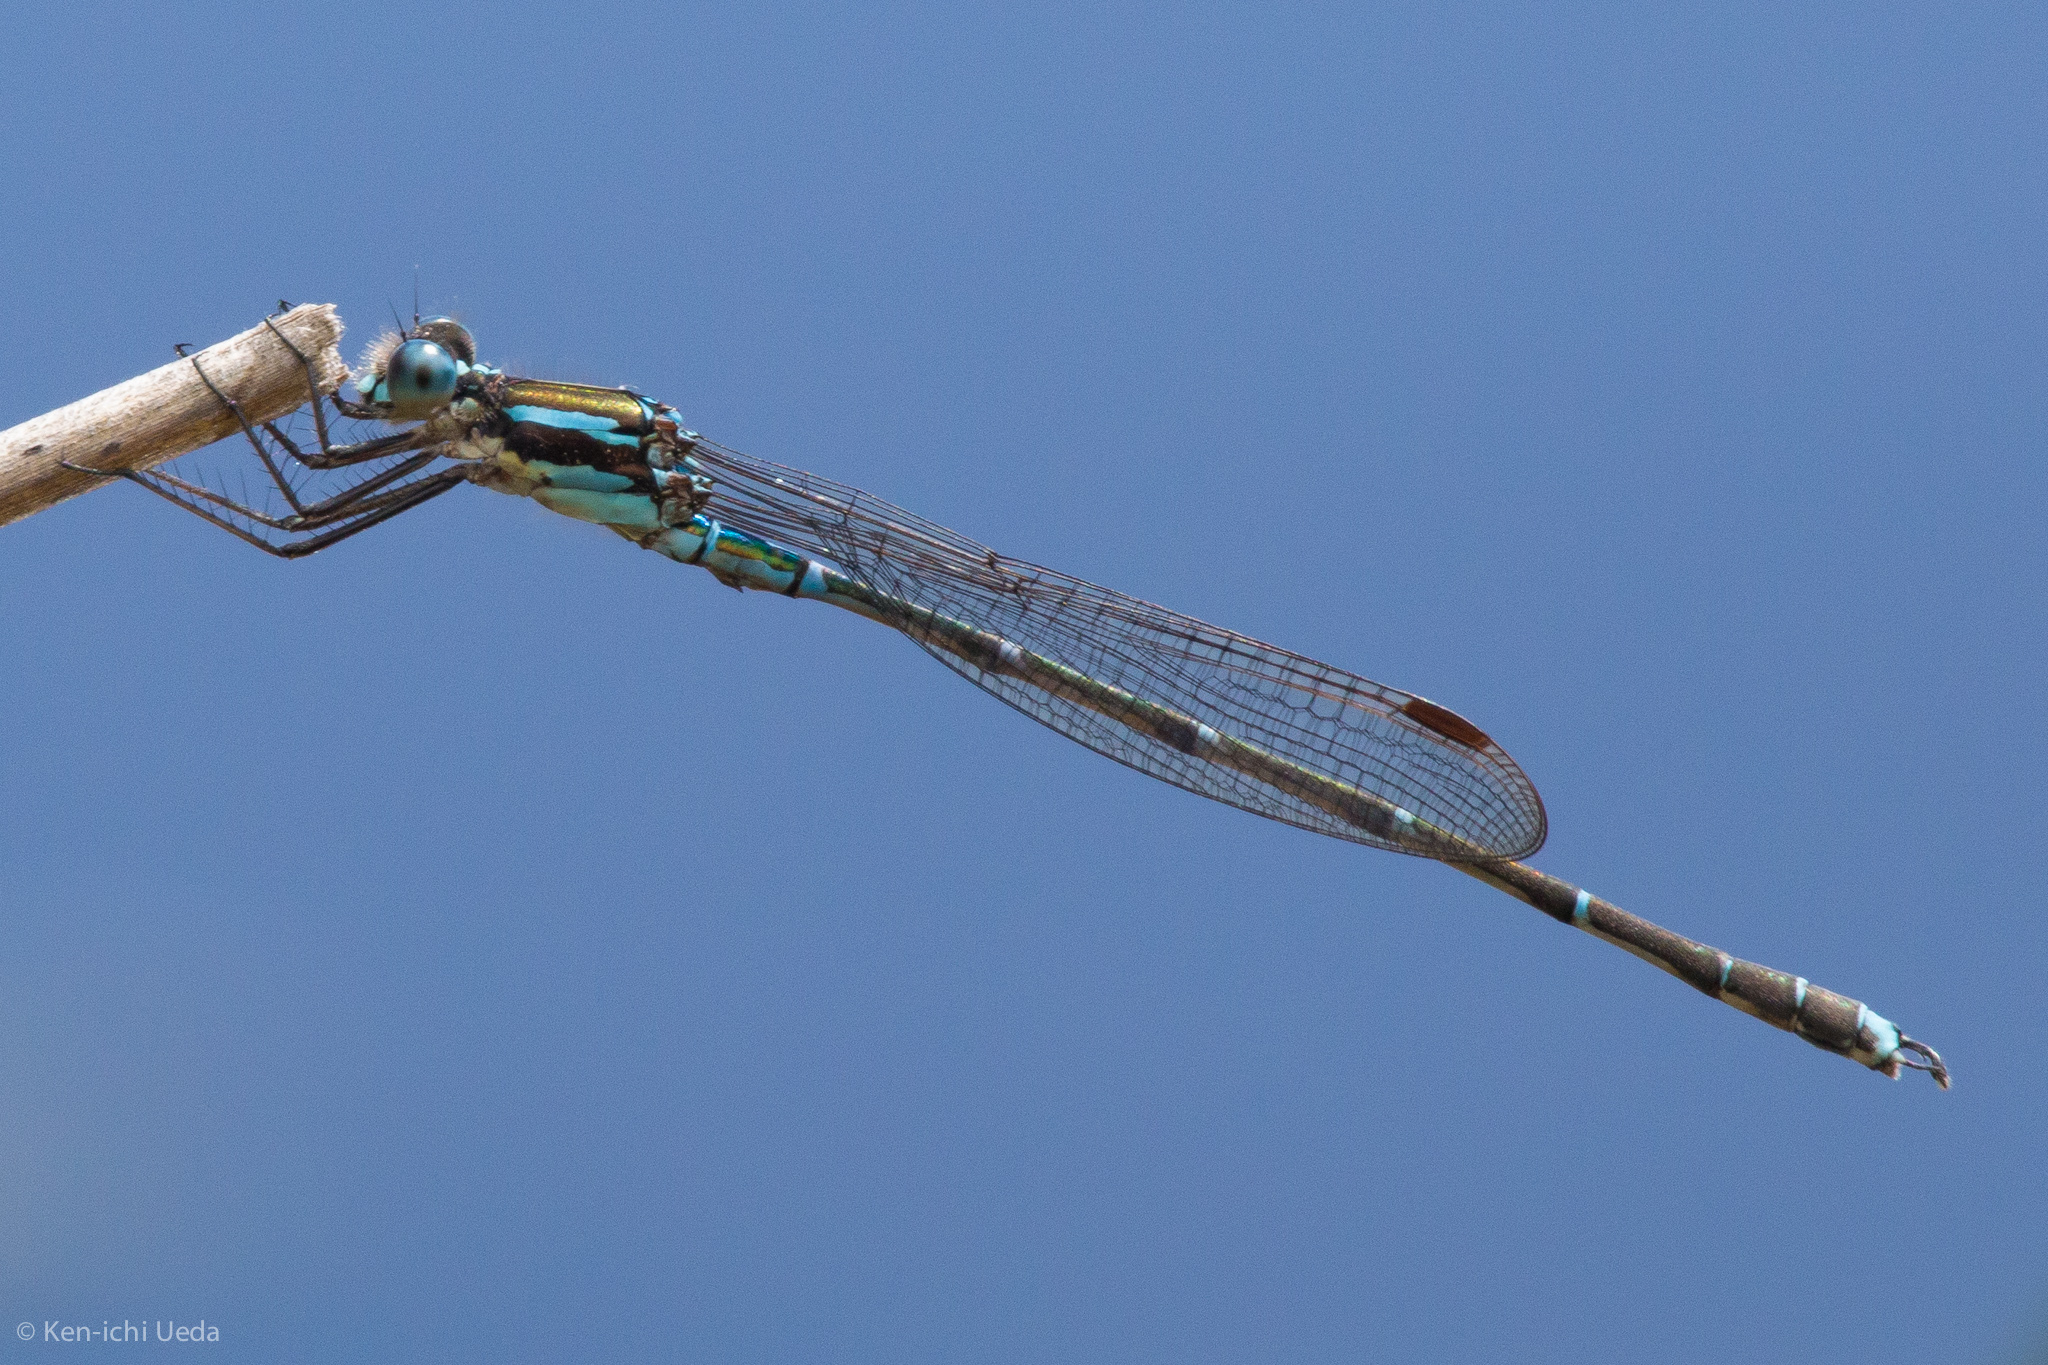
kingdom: Animalia
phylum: Arthropoda
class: Insecta
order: Odonata
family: Lestidae
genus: Austrolestes
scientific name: Austrolestes colensonis
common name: Blue damselfly
